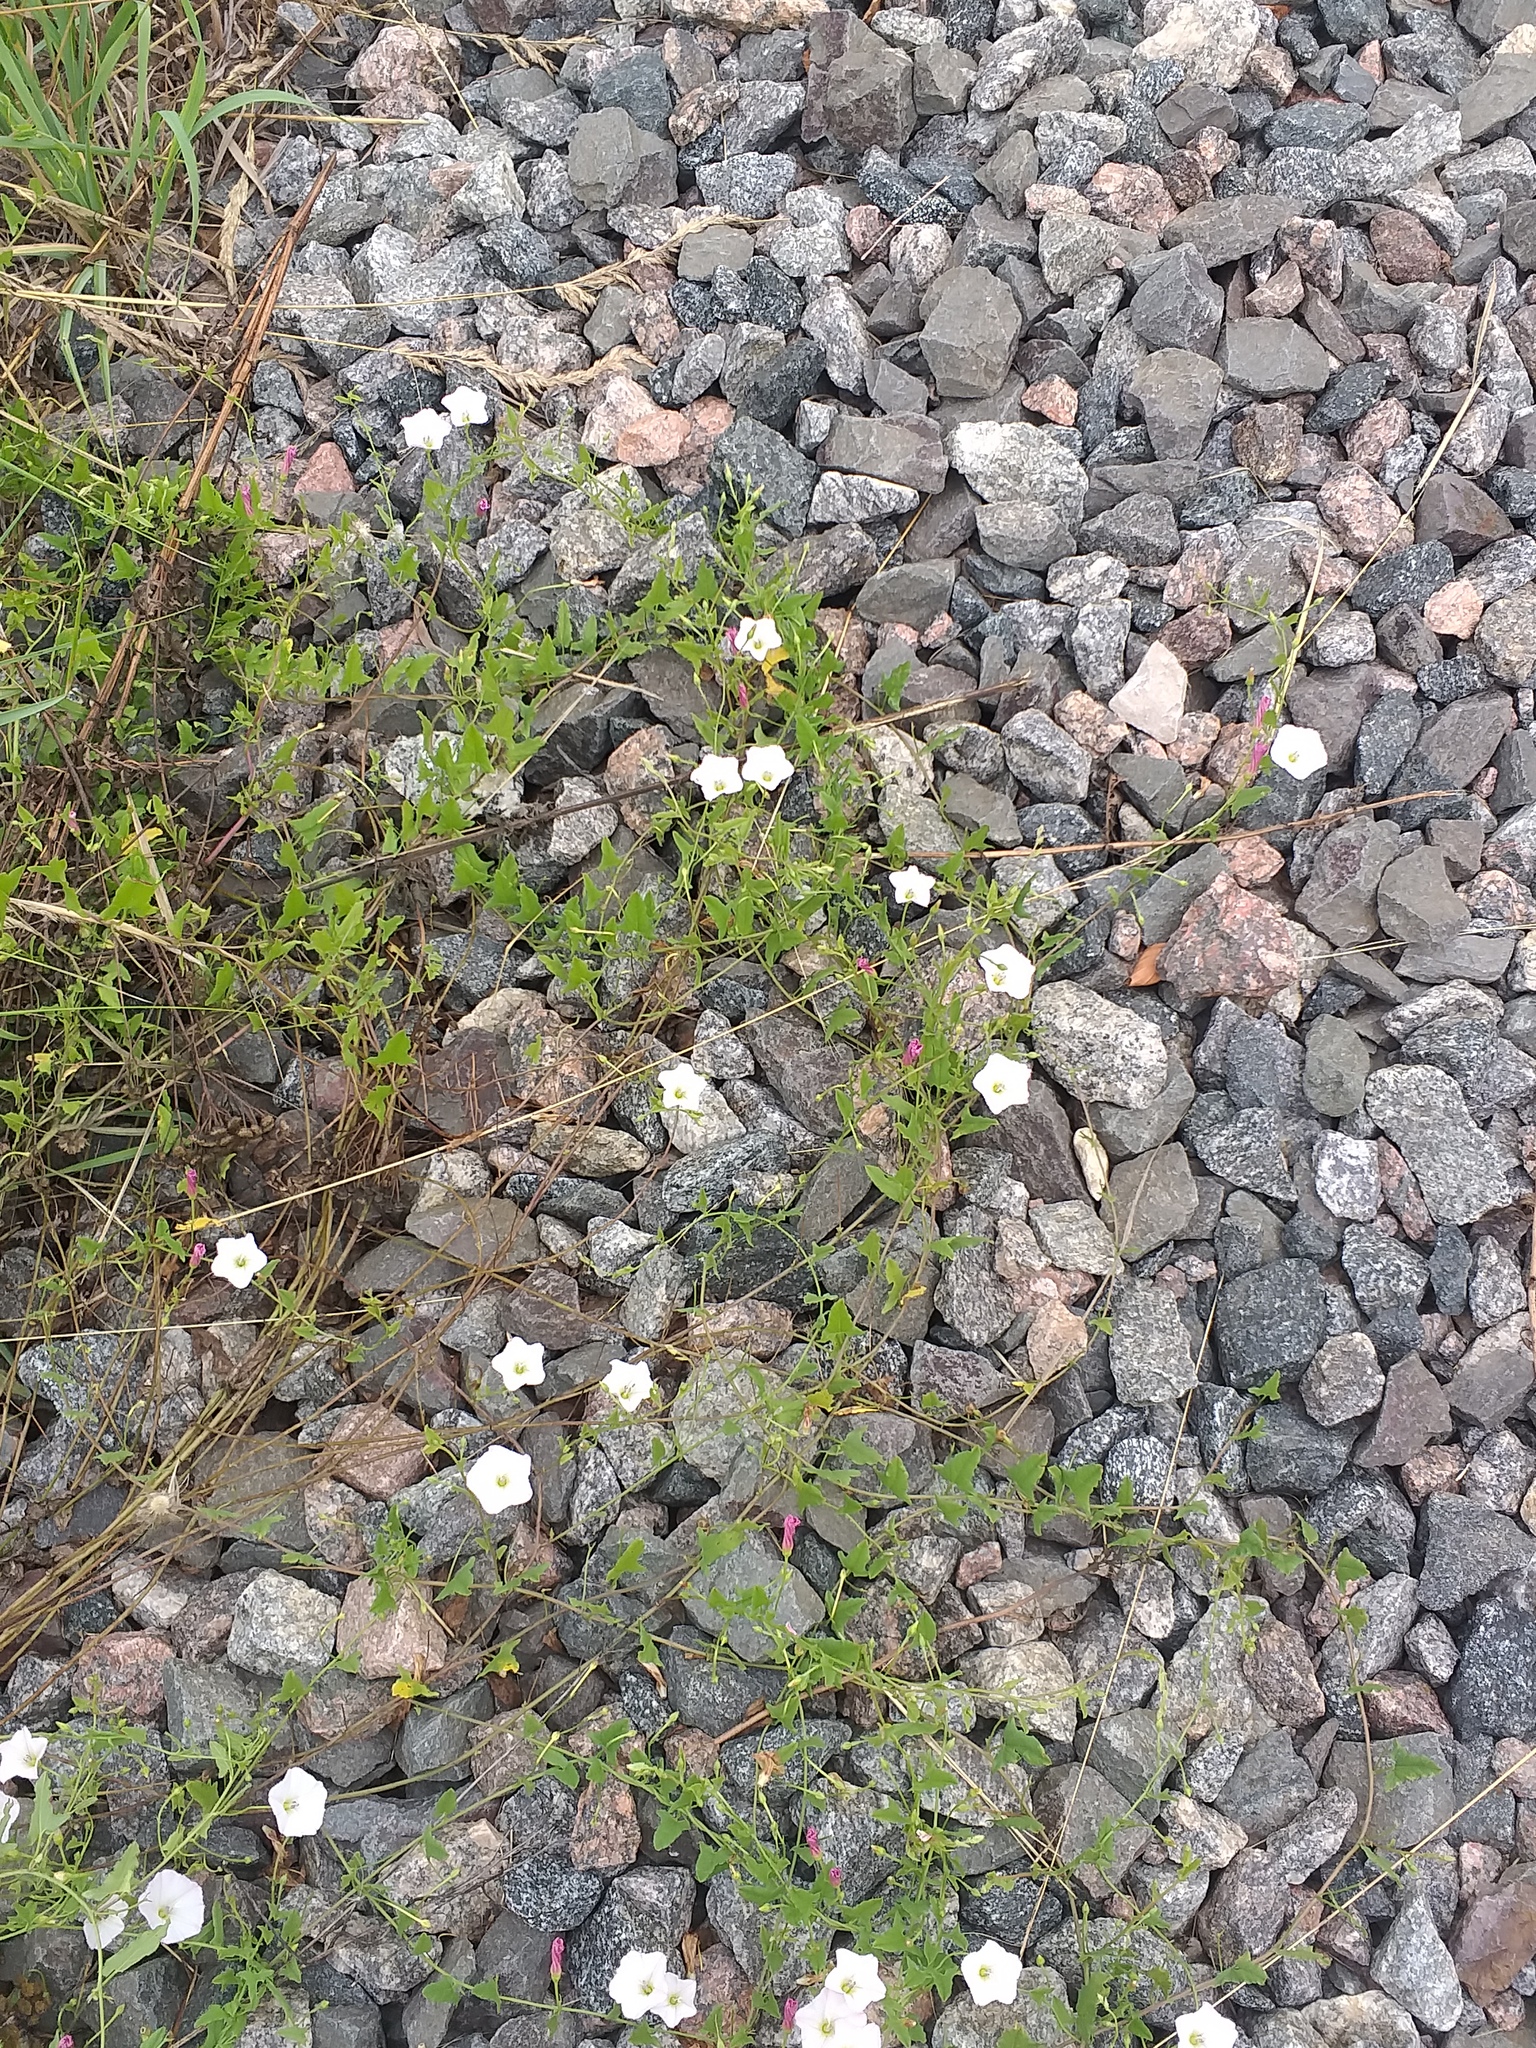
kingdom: Plantae
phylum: Tracheophyta
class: Magnoliopsida
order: Solanales
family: Convolvulaceae
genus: Convolvulus
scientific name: Convolvulus arvensis
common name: Field bindweed
